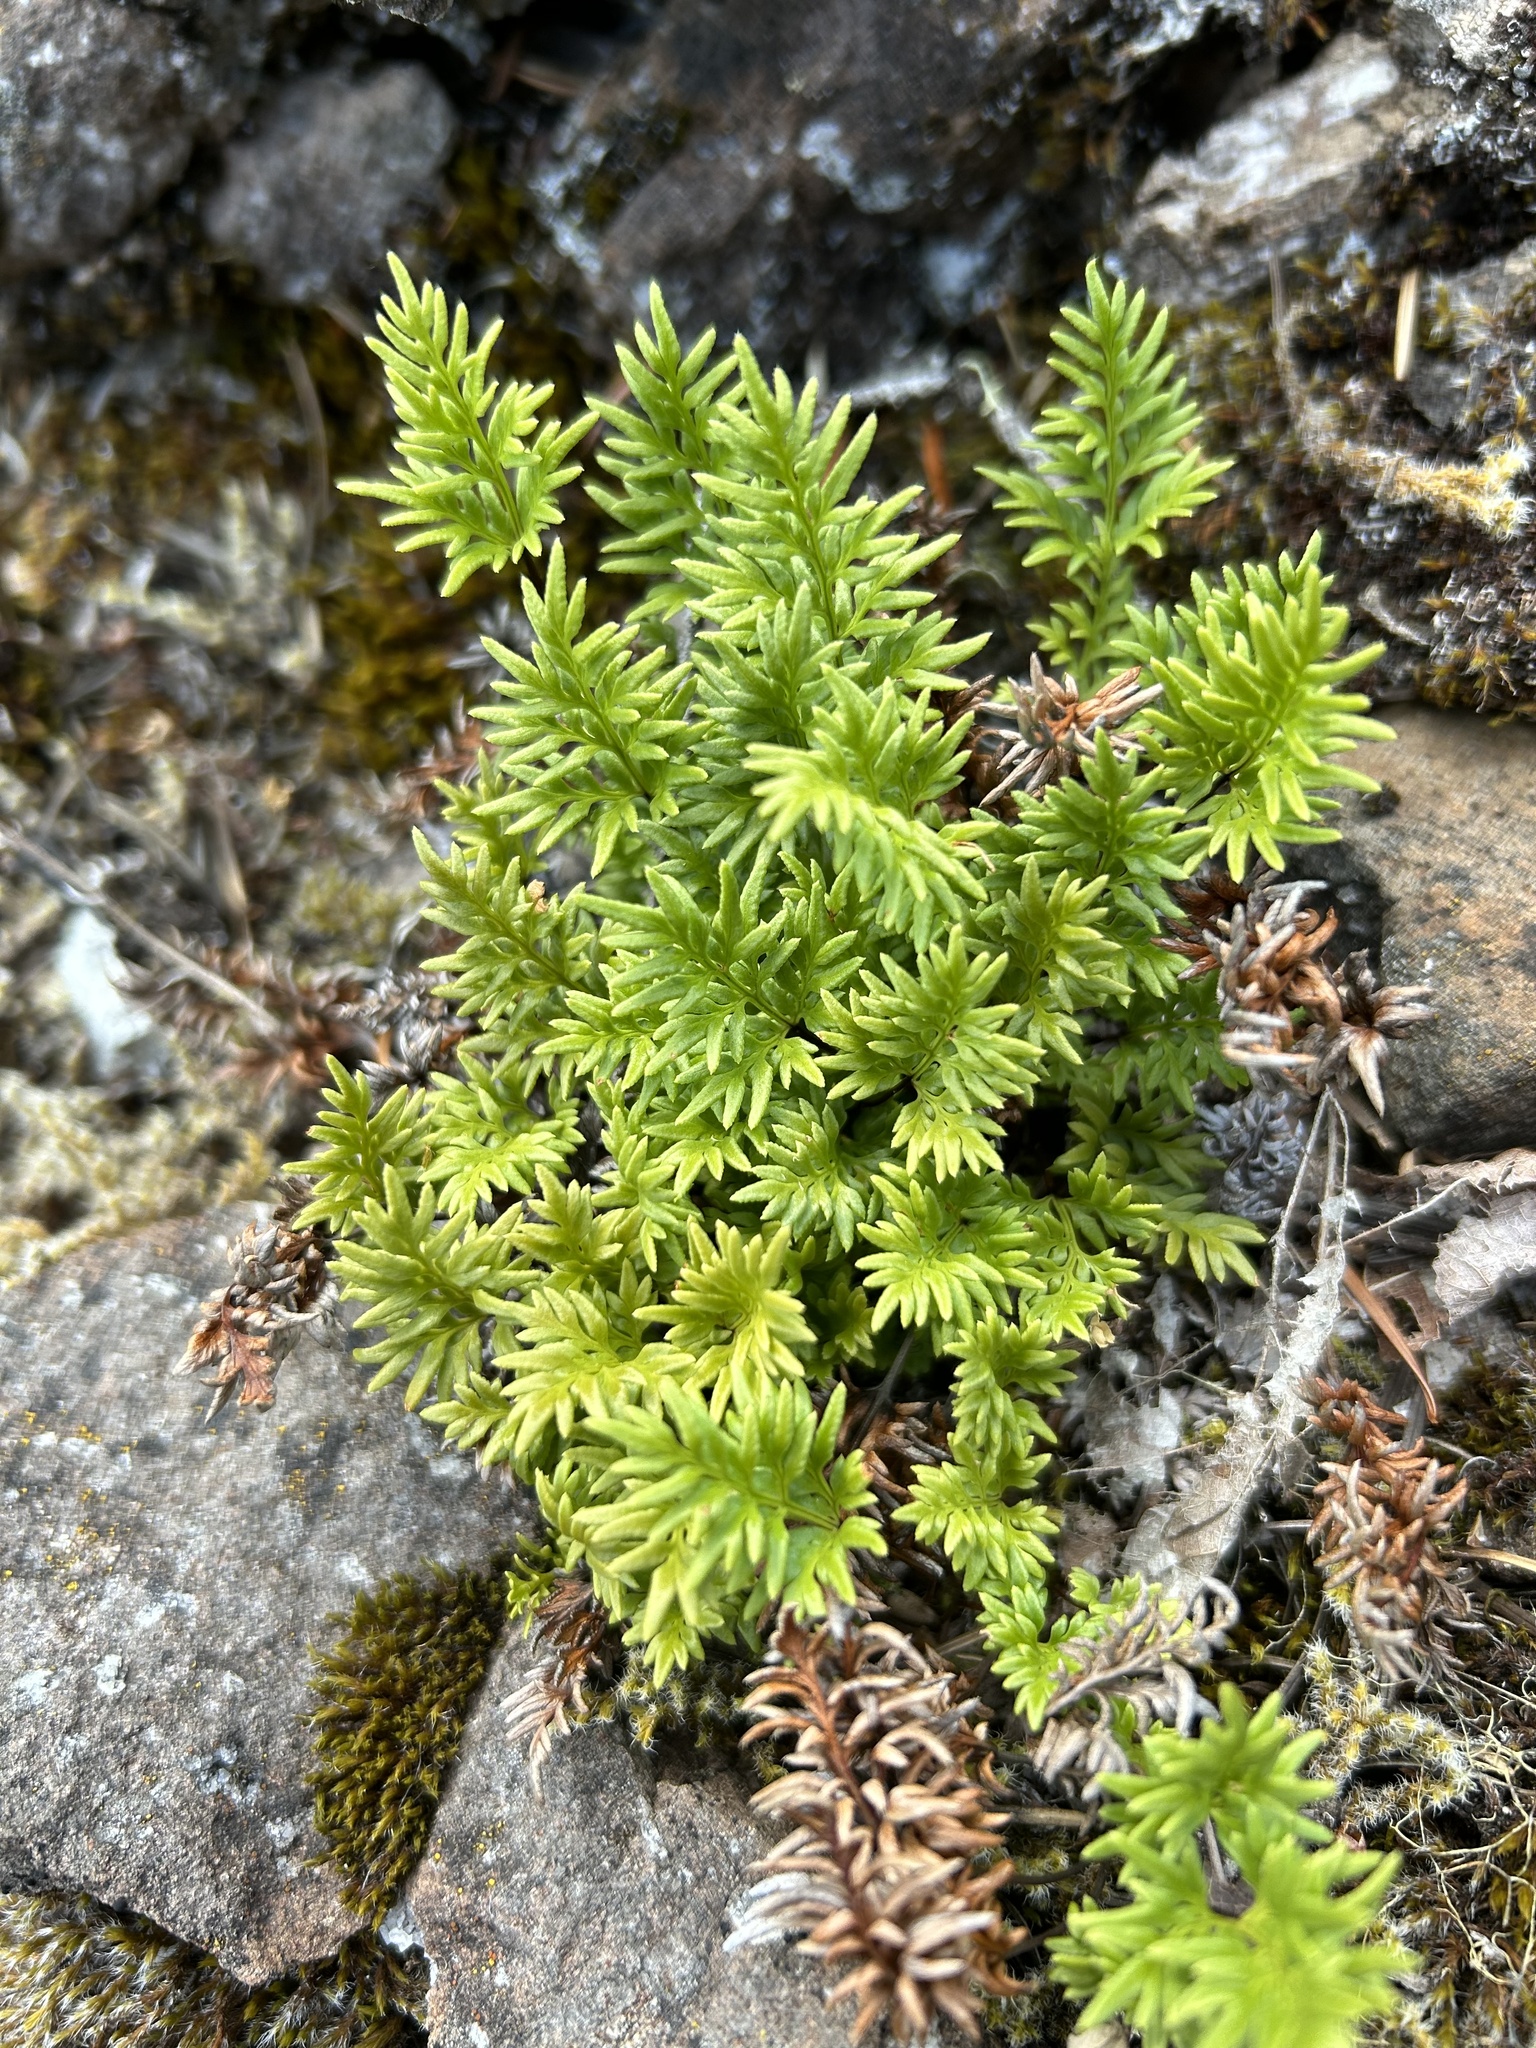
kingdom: Plantae
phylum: Tracheophyta
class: Polypodiopsida
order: Polypodiales
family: Pteridaceae
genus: Aspidotis
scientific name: Aspidotis densa
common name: Indian's dream
